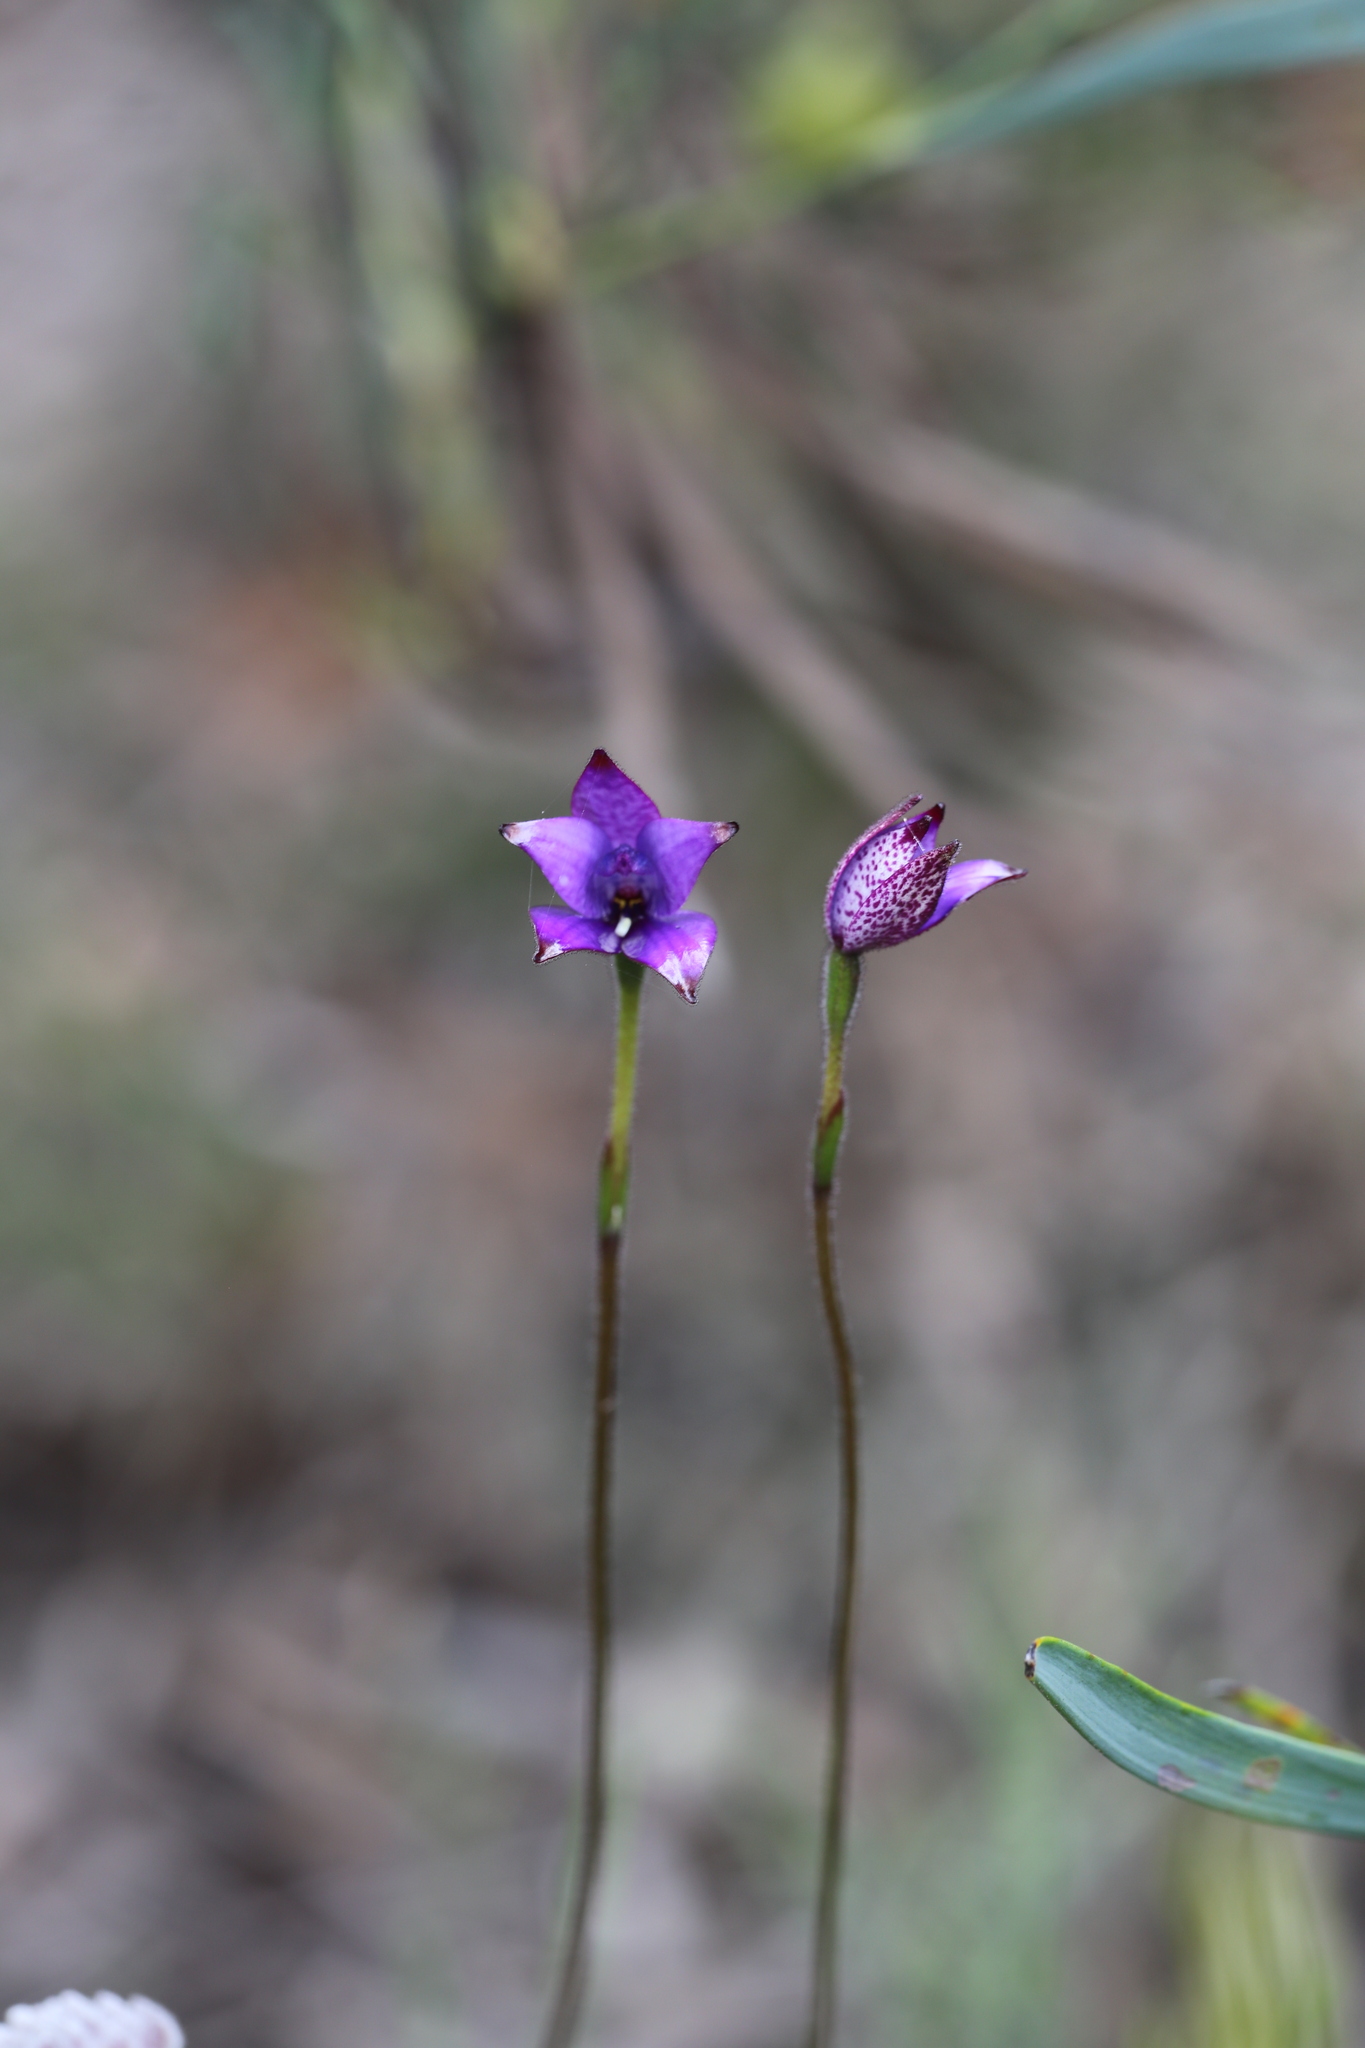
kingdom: Plantae
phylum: Tracheophyta
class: Liliopsida
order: Asparagales
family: Orchidaceae
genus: Caladenia
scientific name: Caladenia brunonis
